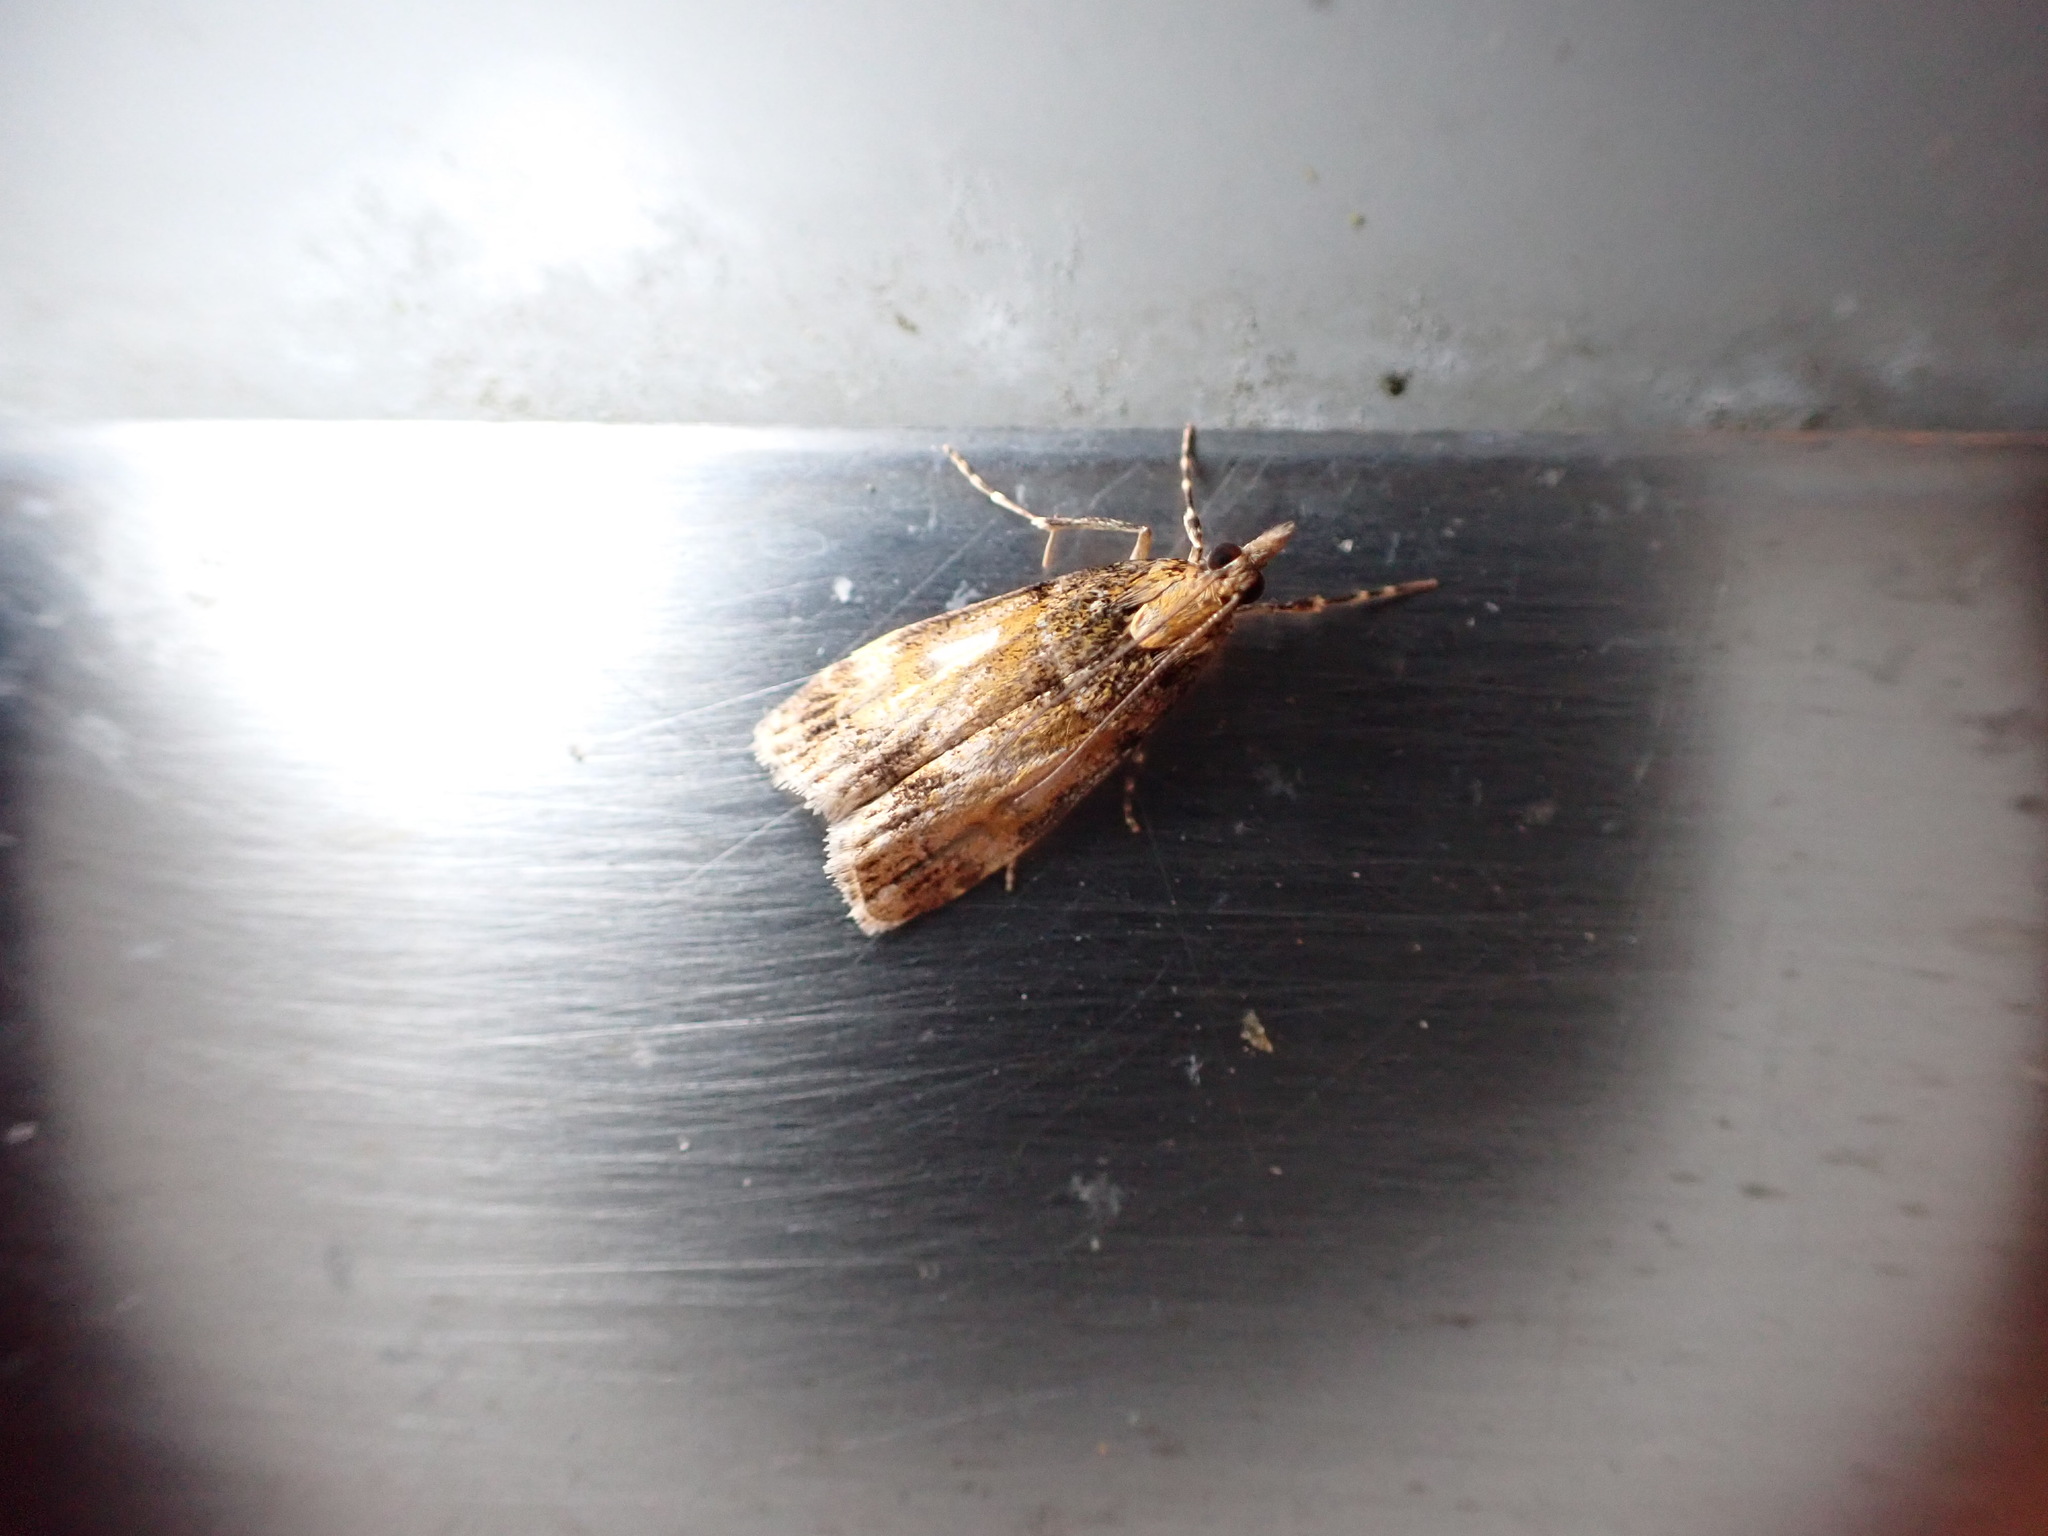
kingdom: Animalia
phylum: Arthropoda
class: Insecta
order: Lepidoptera
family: Crambidae
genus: Eudonia
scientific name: Eudonia thyridias
